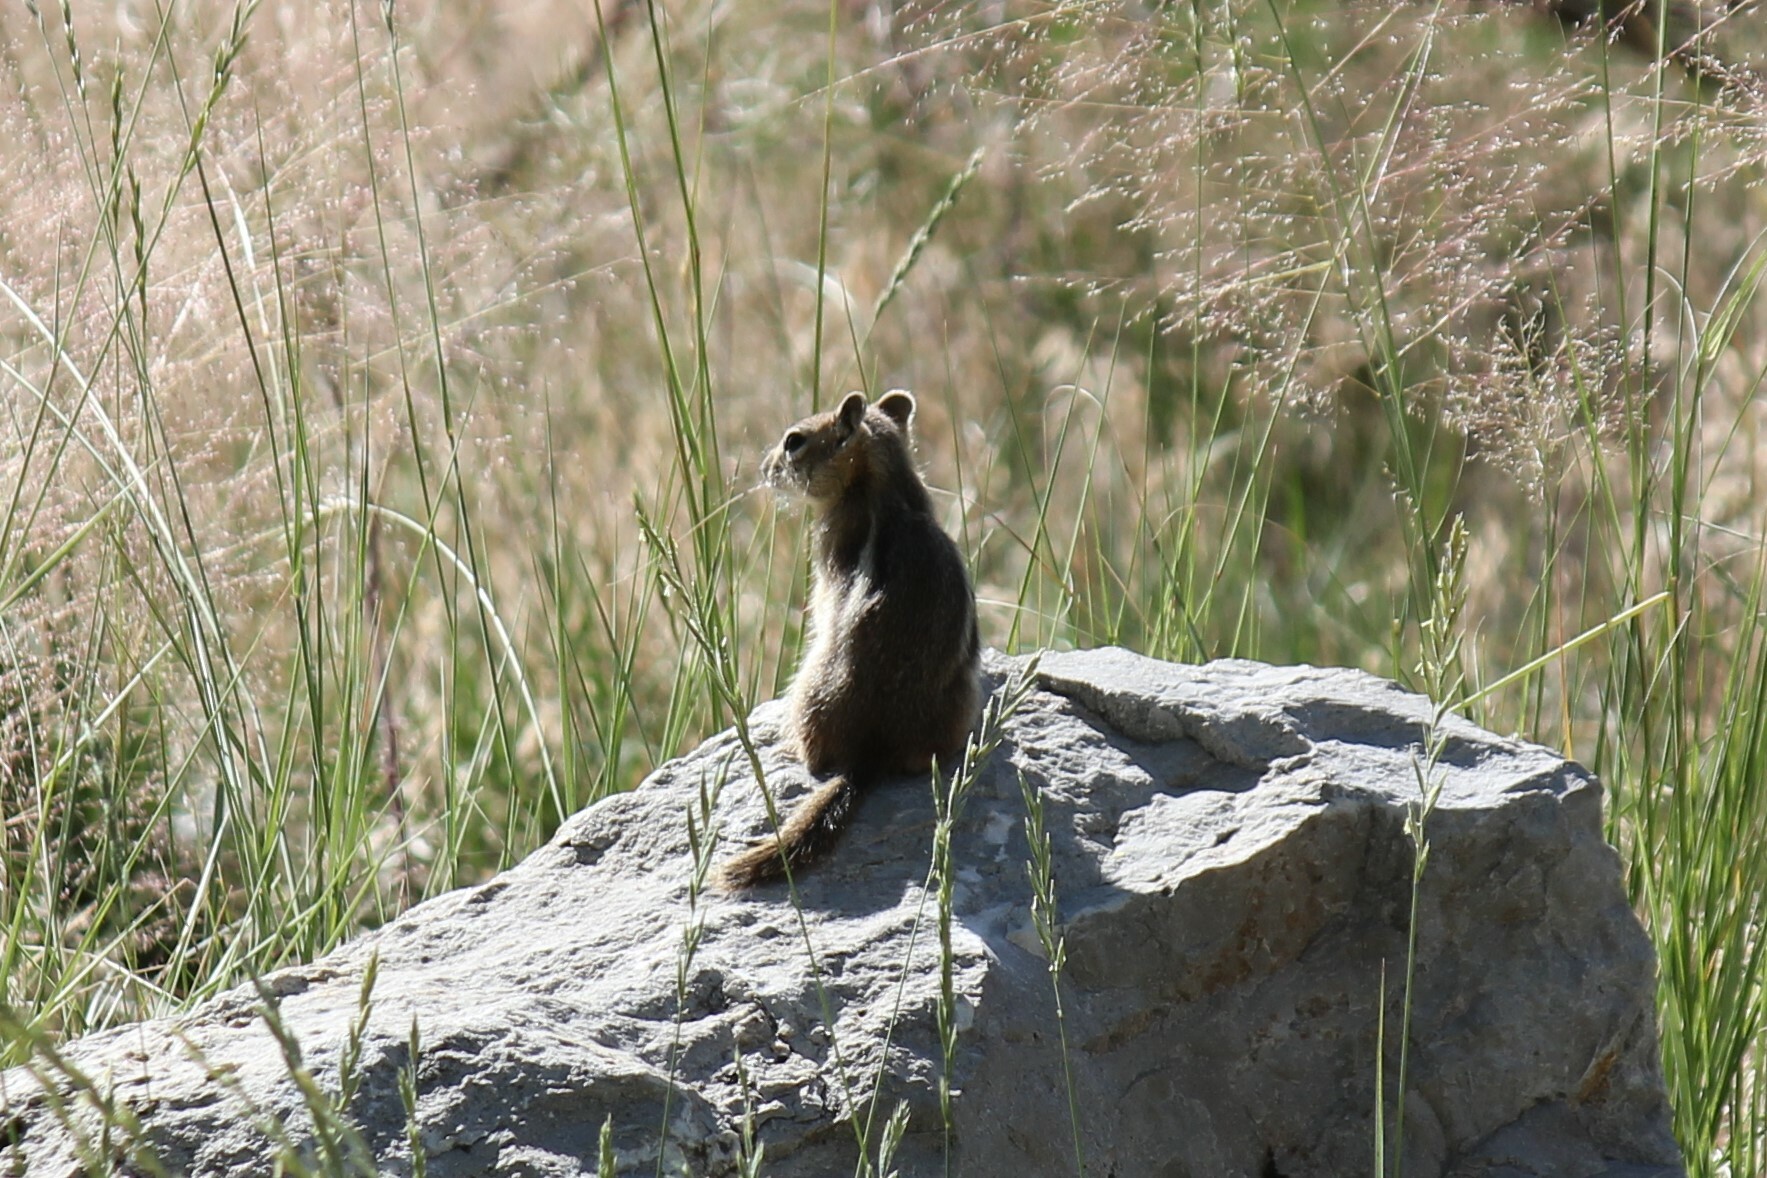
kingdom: Animalia
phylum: Chordata
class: Mammalia
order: Rodentia
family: Sciuridae
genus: Callospermophilus
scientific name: Callospermophilus lateralis
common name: Golden-mantled ground squirrel
